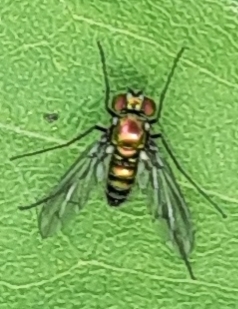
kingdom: Animalia
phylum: Arthropoda
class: Insecta
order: Diptera
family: Dolichopodidae
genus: Condylostylus
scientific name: Condylostylus patibulatus
